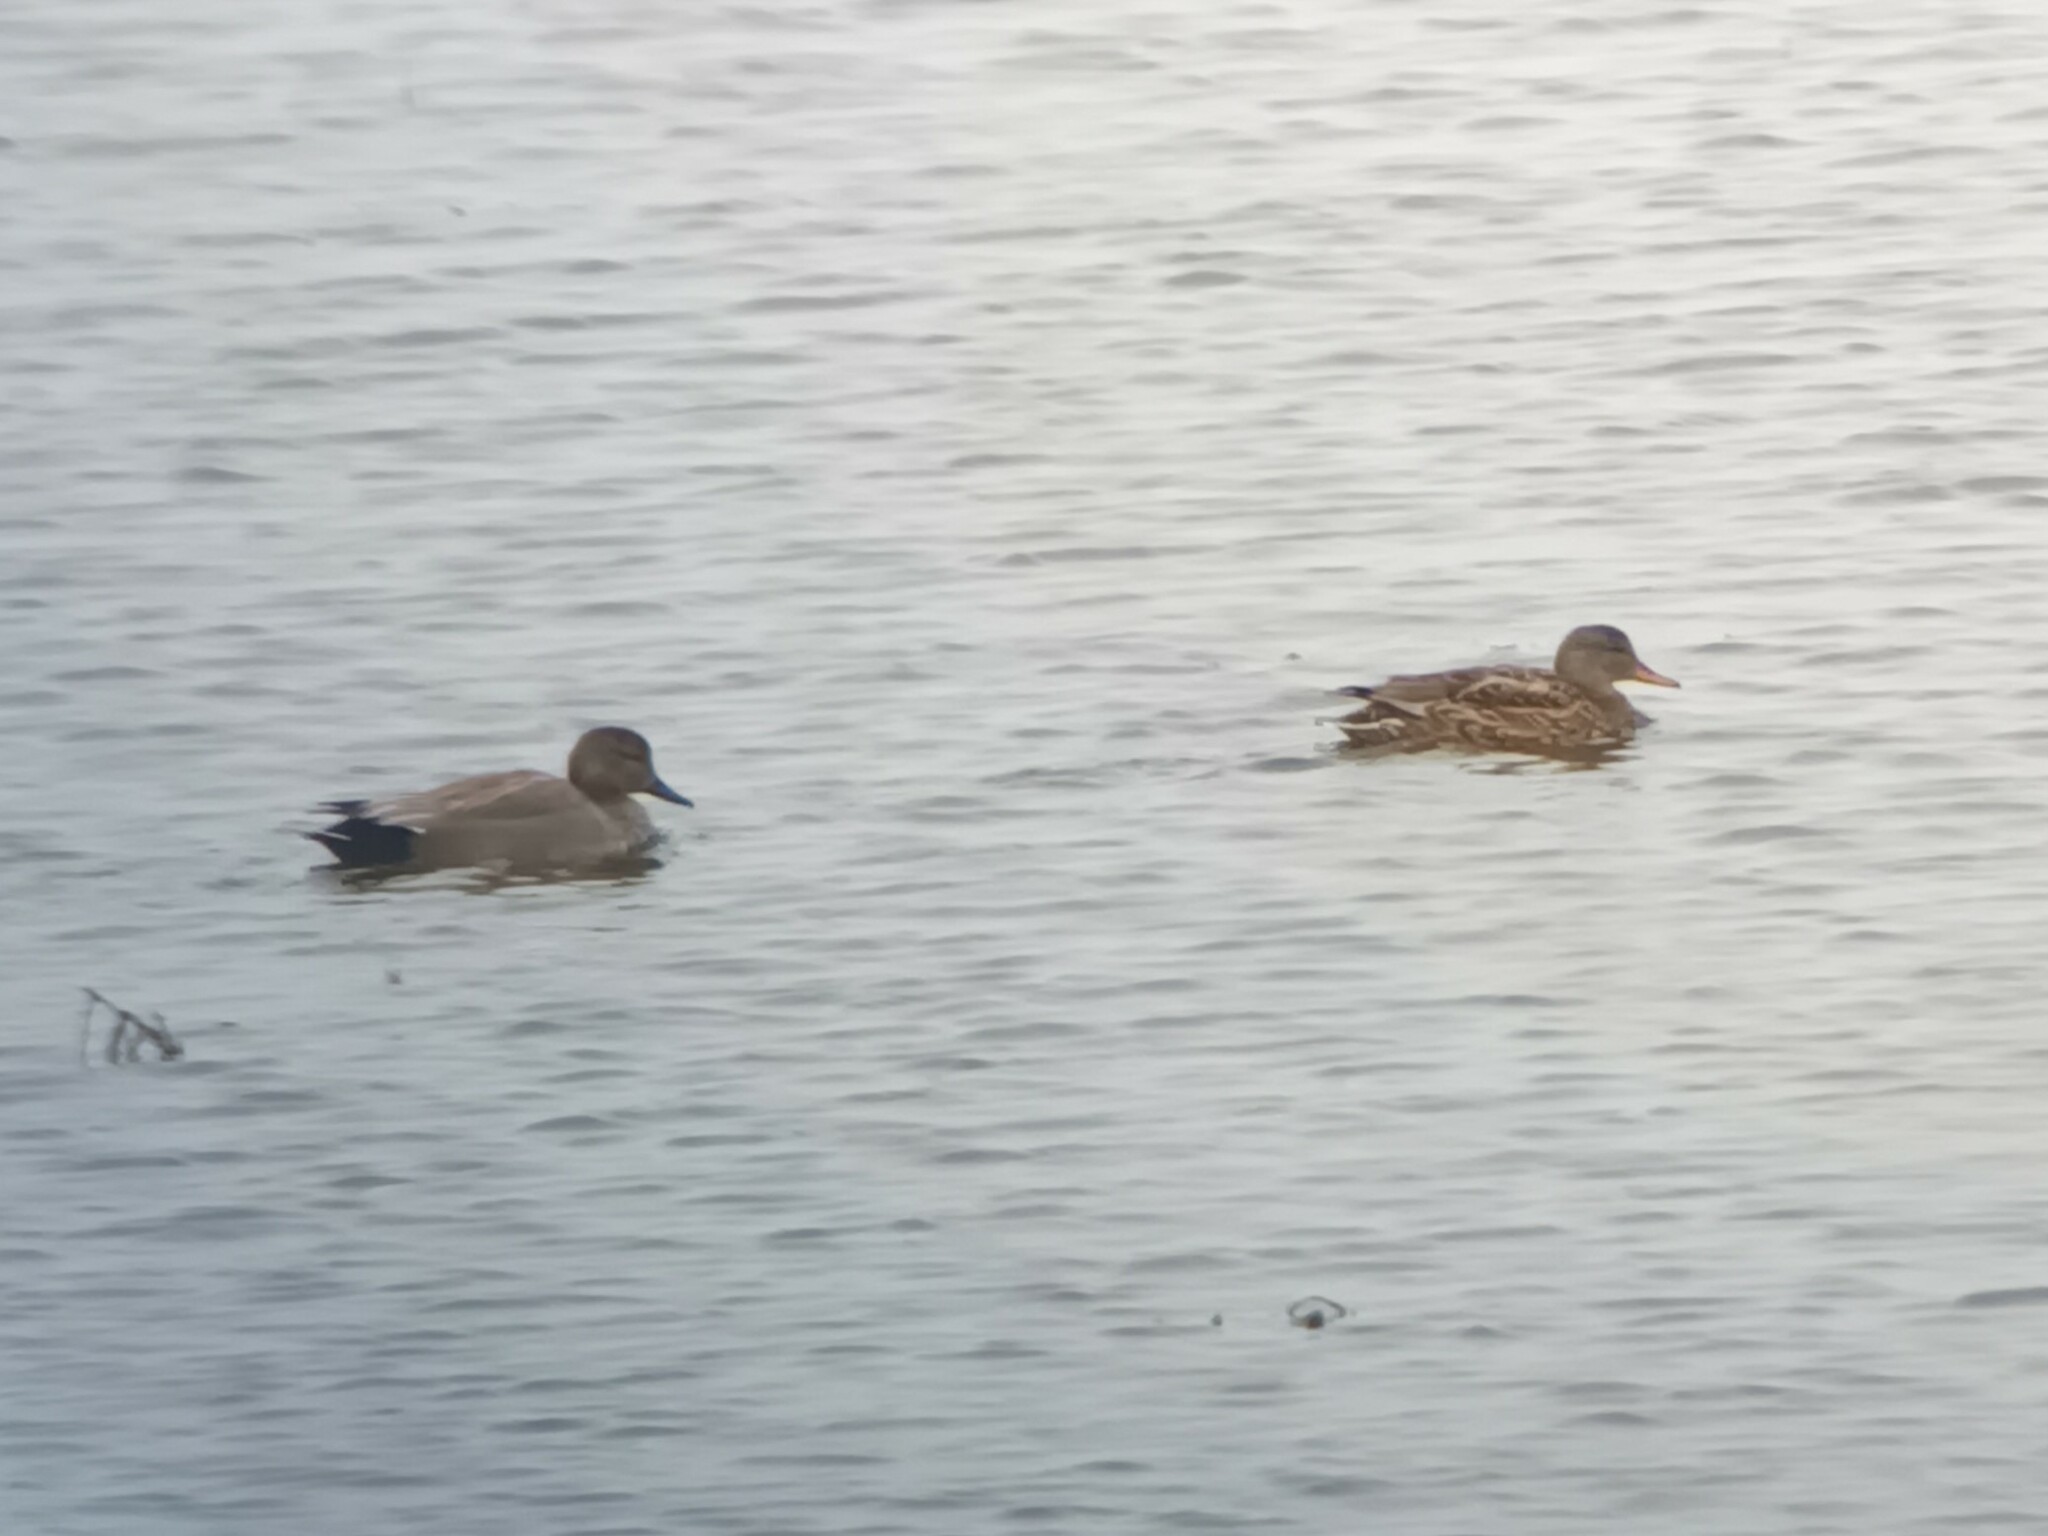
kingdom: Animalia
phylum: Chordata
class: Aves
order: Anseriformes
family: Anatidae
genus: Mareca
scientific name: Mareca strepera
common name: Gadwall
